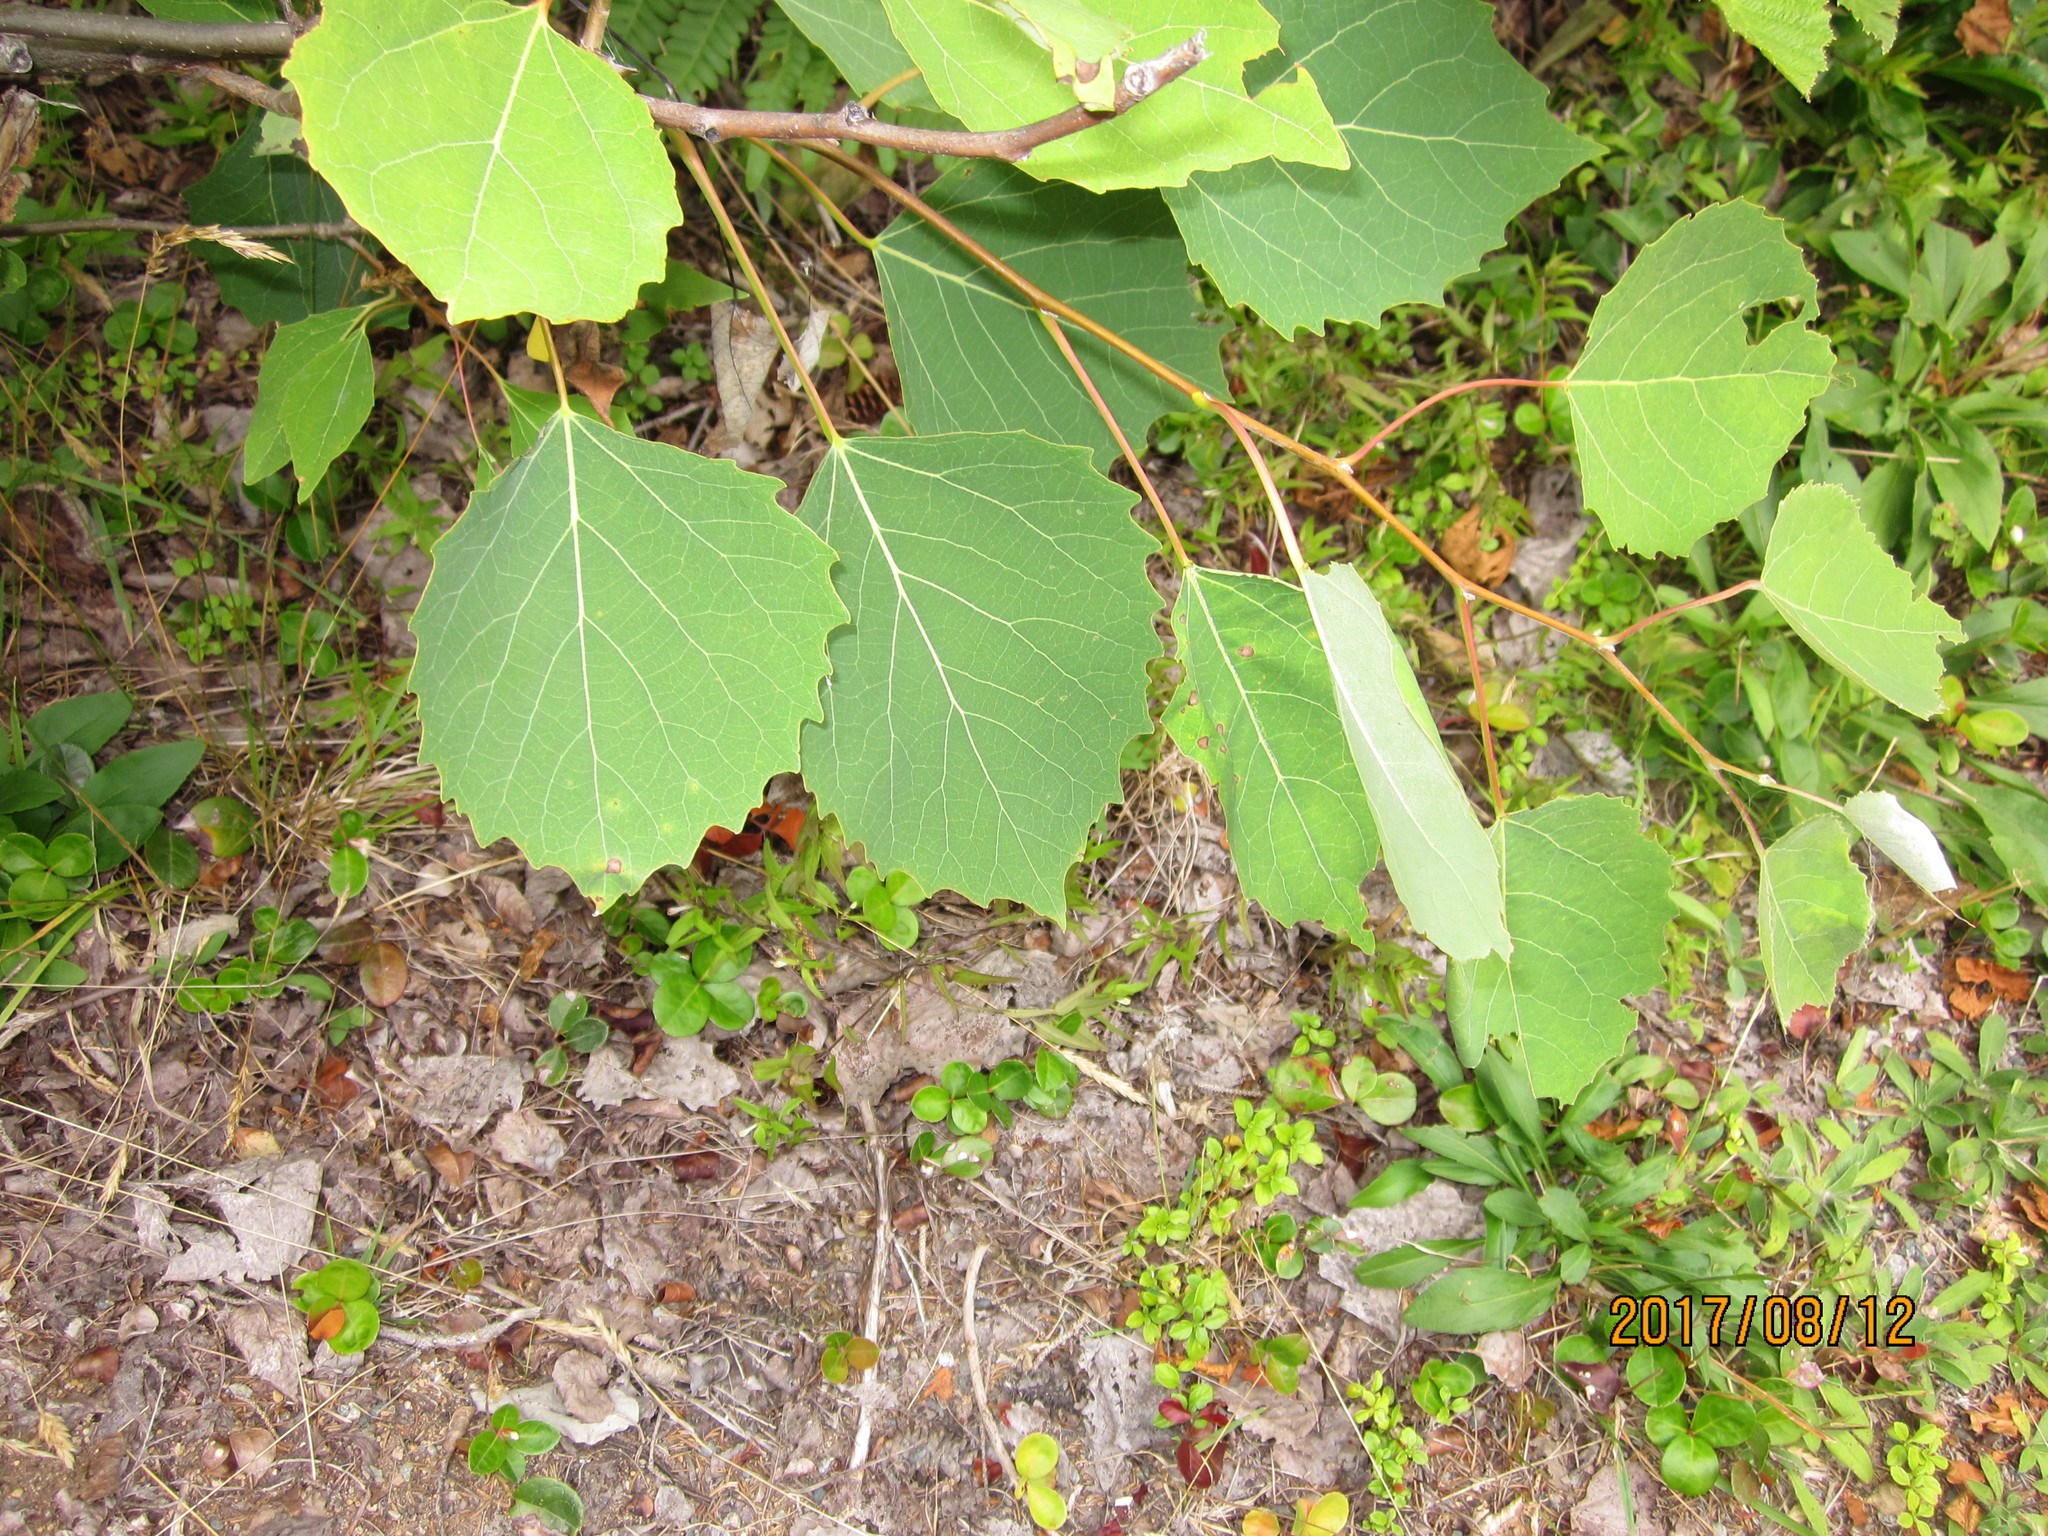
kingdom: Plantae
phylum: Tracheophyta
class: Magnoliopsida
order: Malpighiales
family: Salicaceae
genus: Populus
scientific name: Populus grandidentata
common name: Bigtooth aspen
